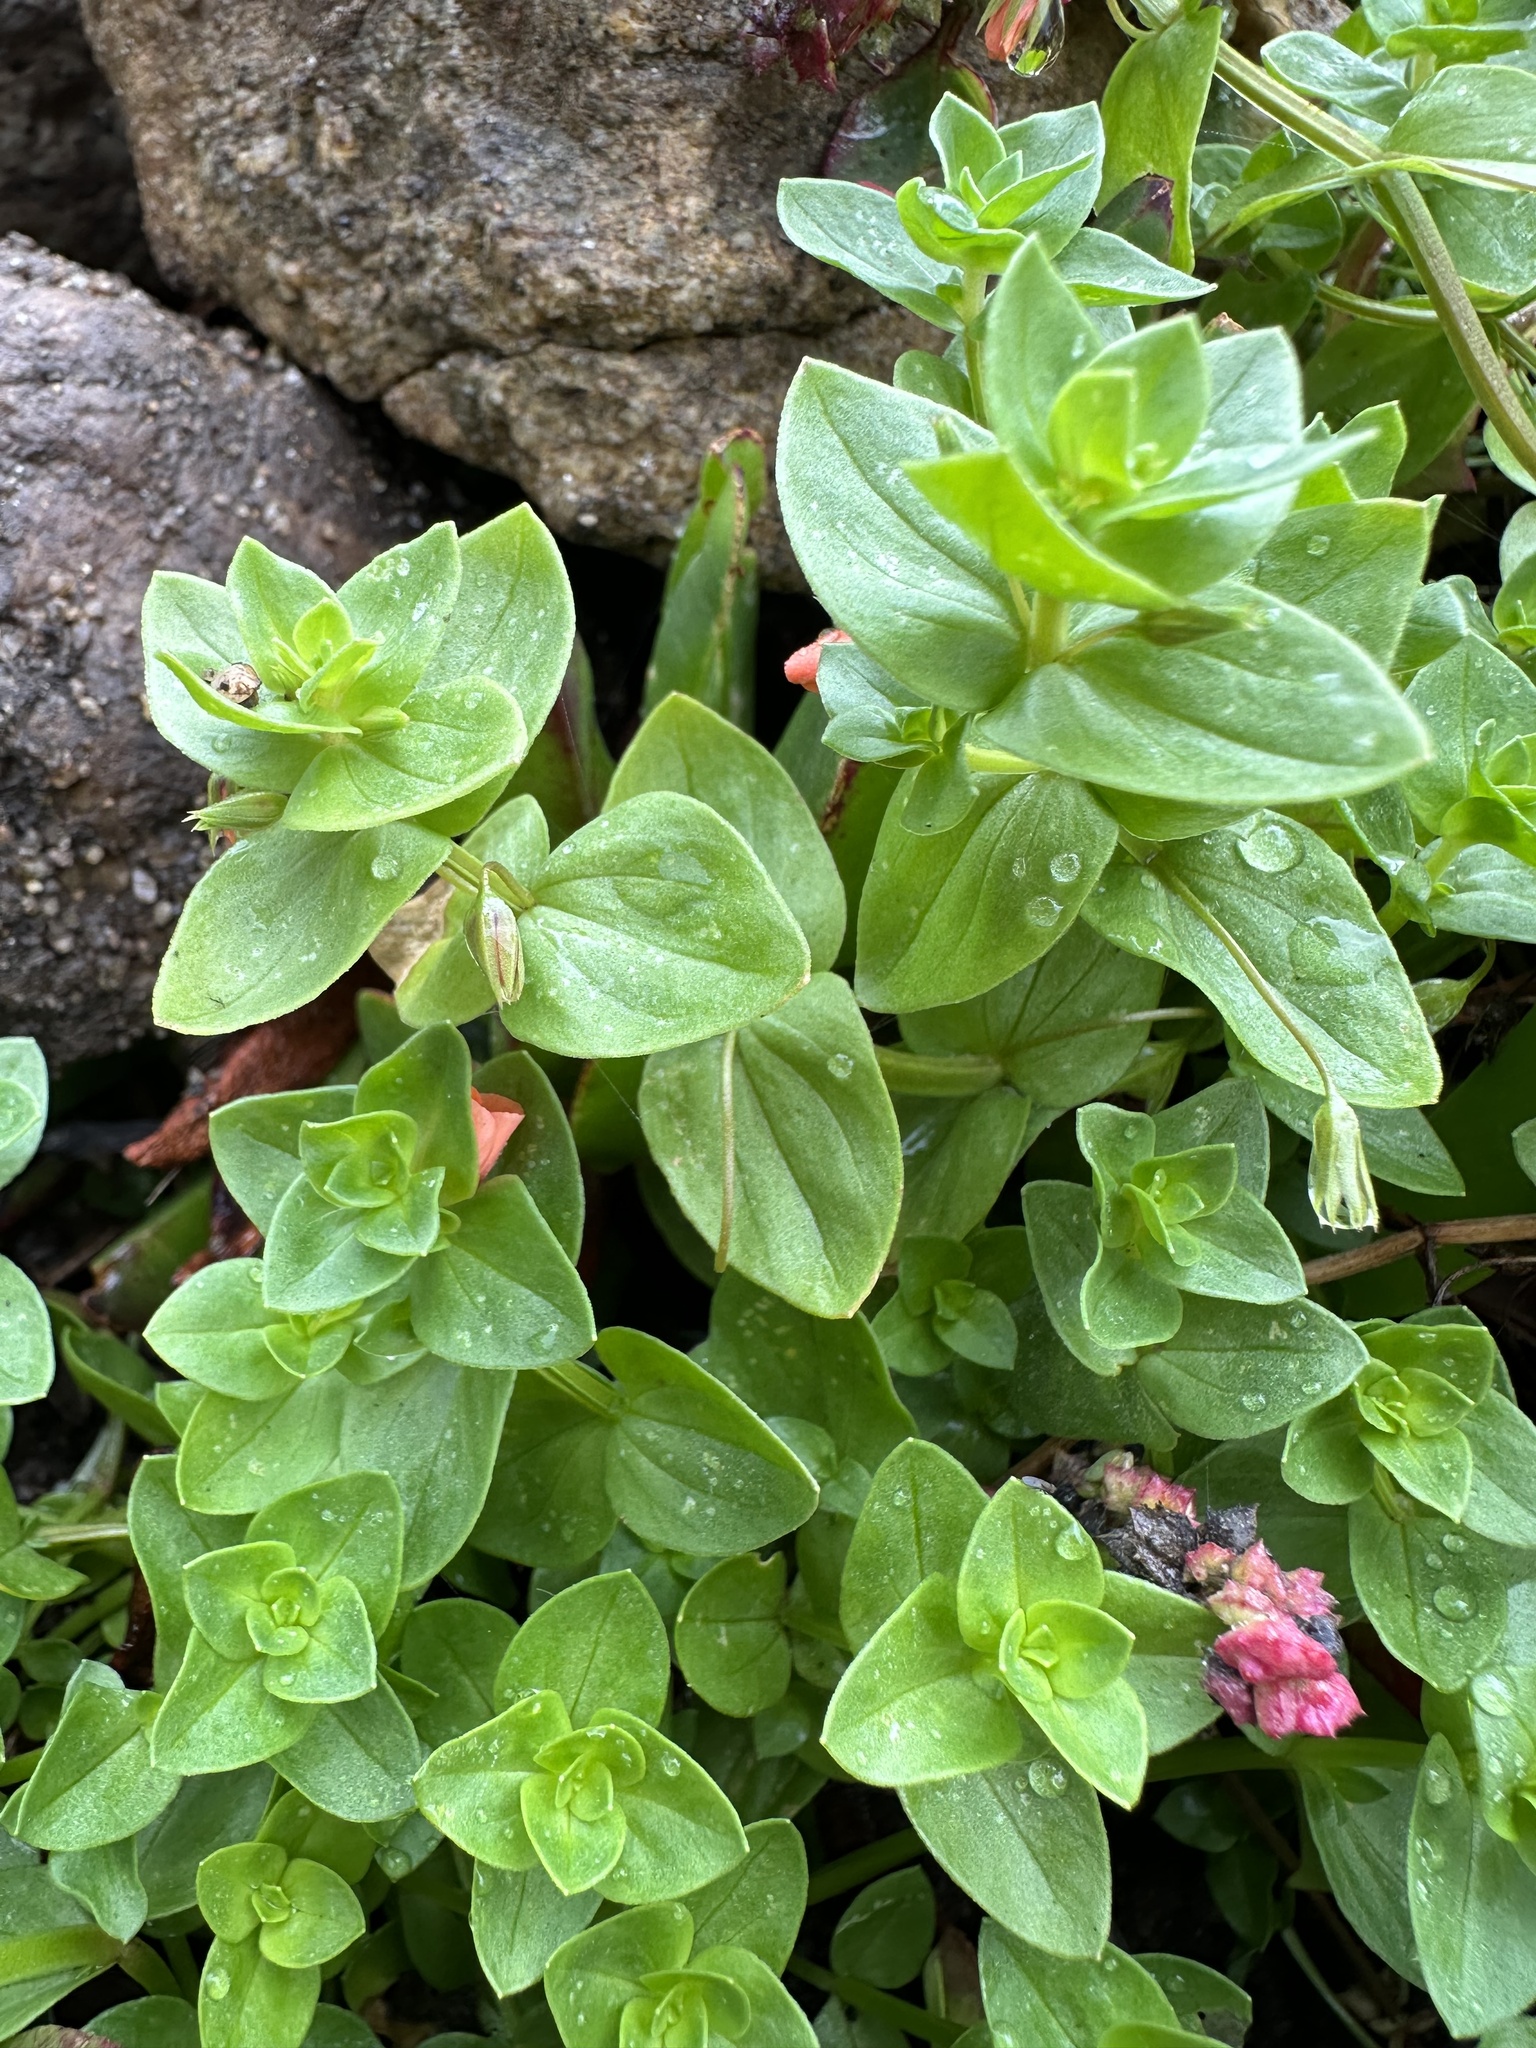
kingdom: Plantae
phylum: Tracheophyta
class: Magnoliopsida
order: Ericales
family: Primulaceae
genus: Lysimachia
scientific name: Lysimachia arvensis
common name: Scarlet pimpernel
